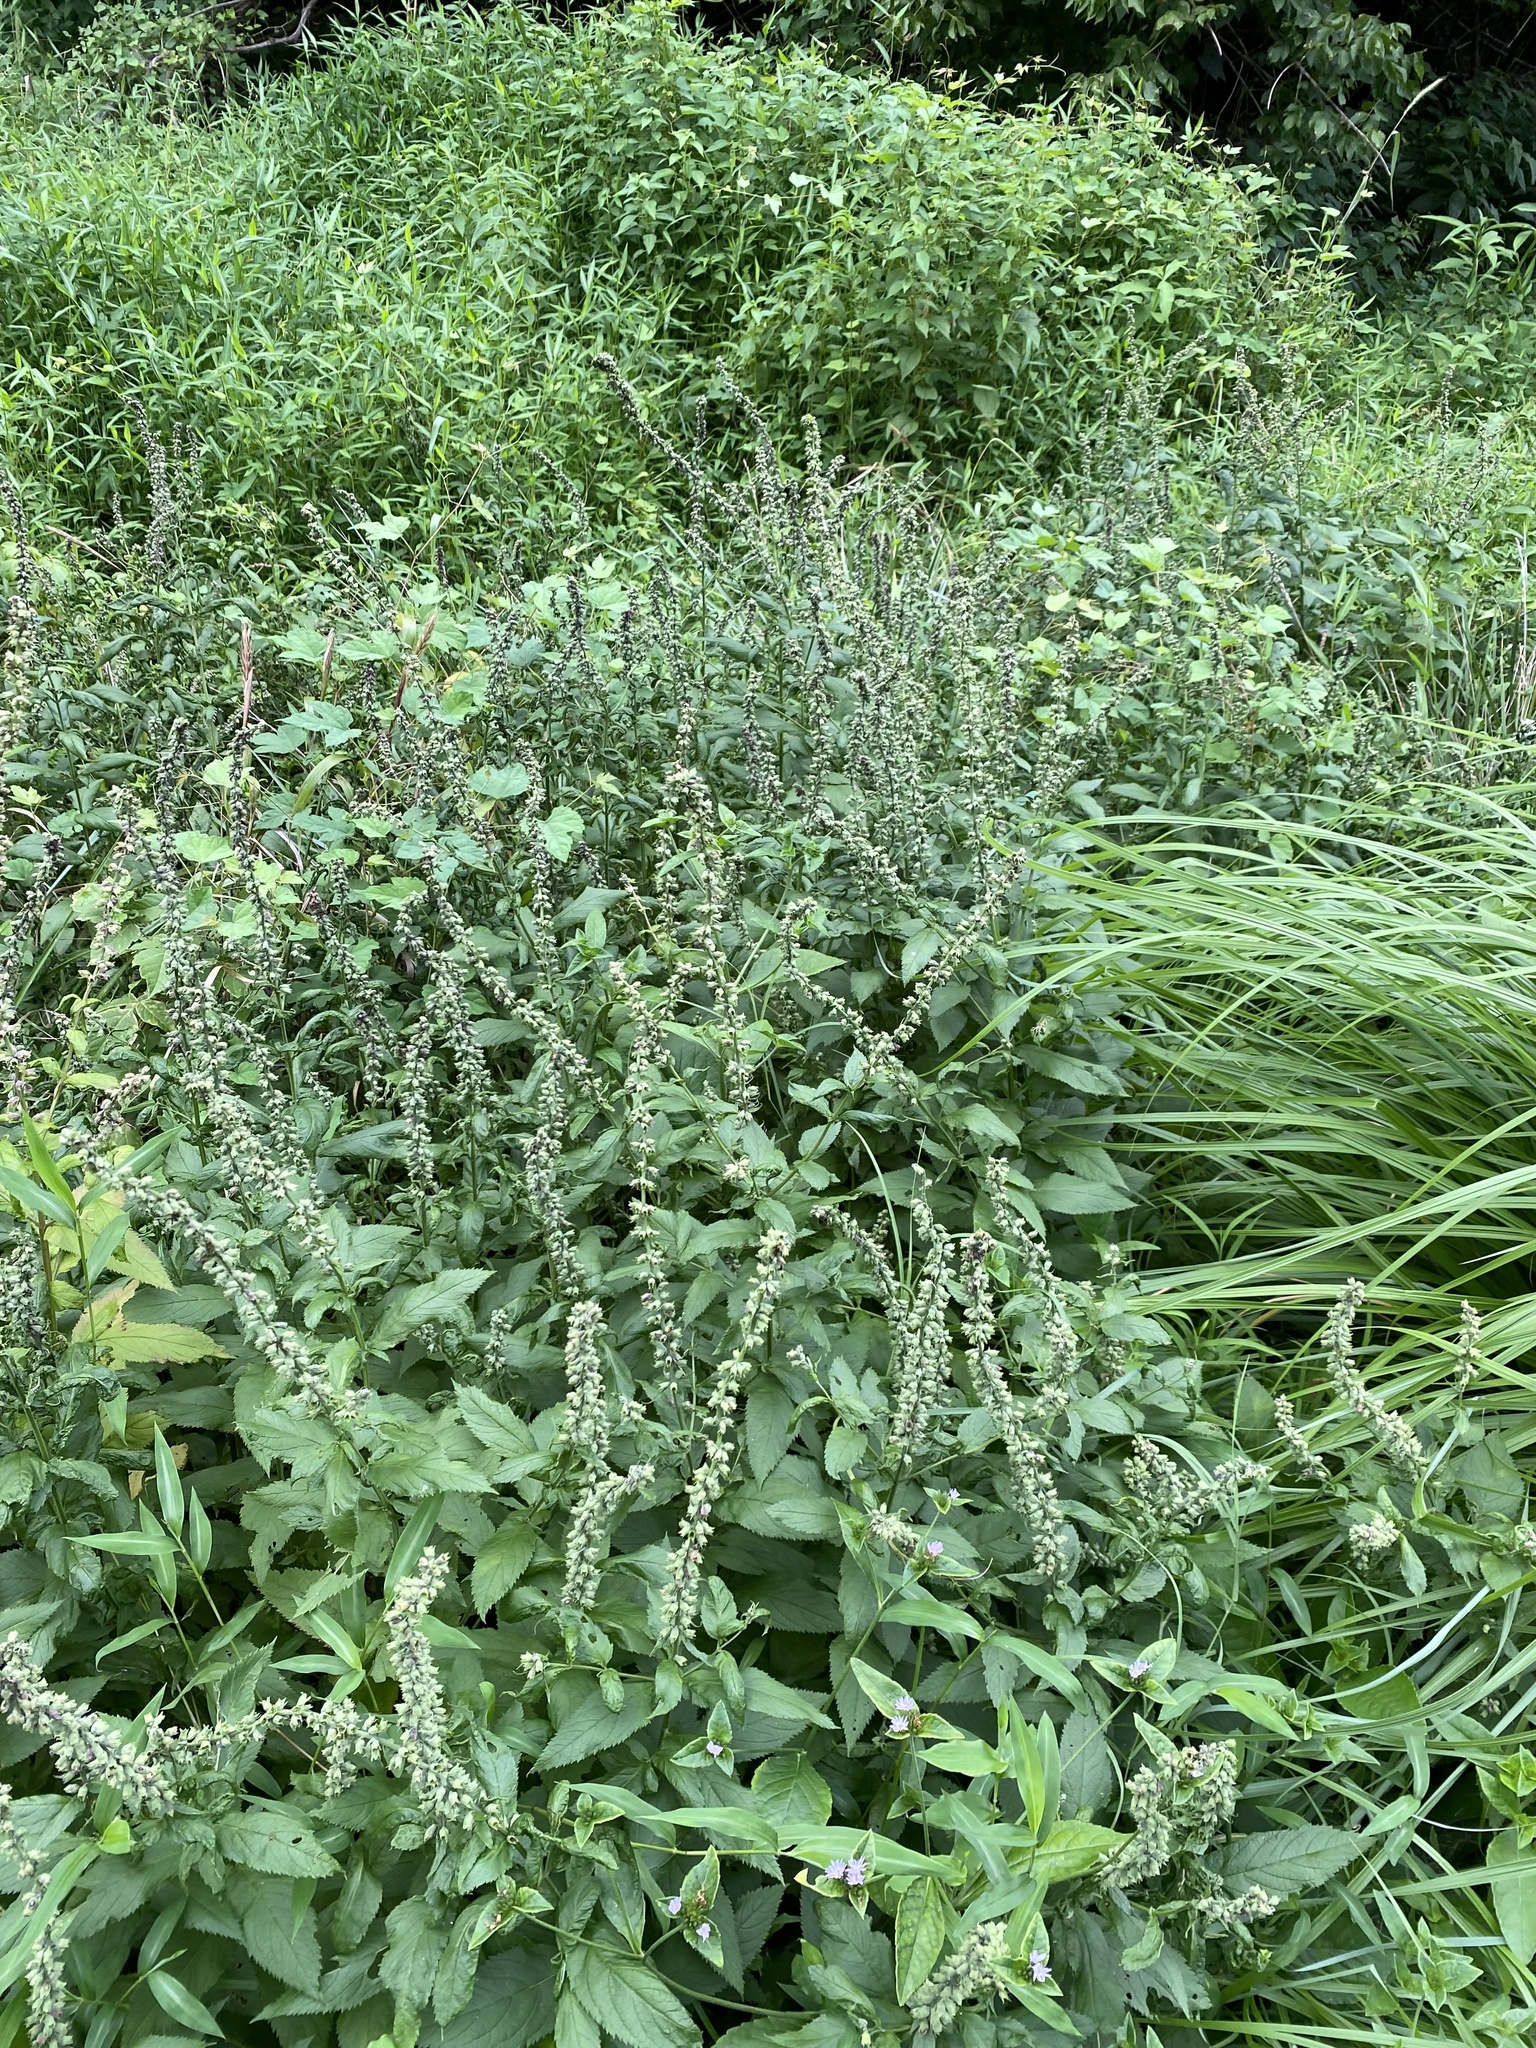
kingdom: Plantae
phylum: Tracheophyta
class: Magnoliopsida
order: Lamiales
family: Lamiaceae
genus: Teucrium
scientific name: Teucrium canadense
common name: American germander
